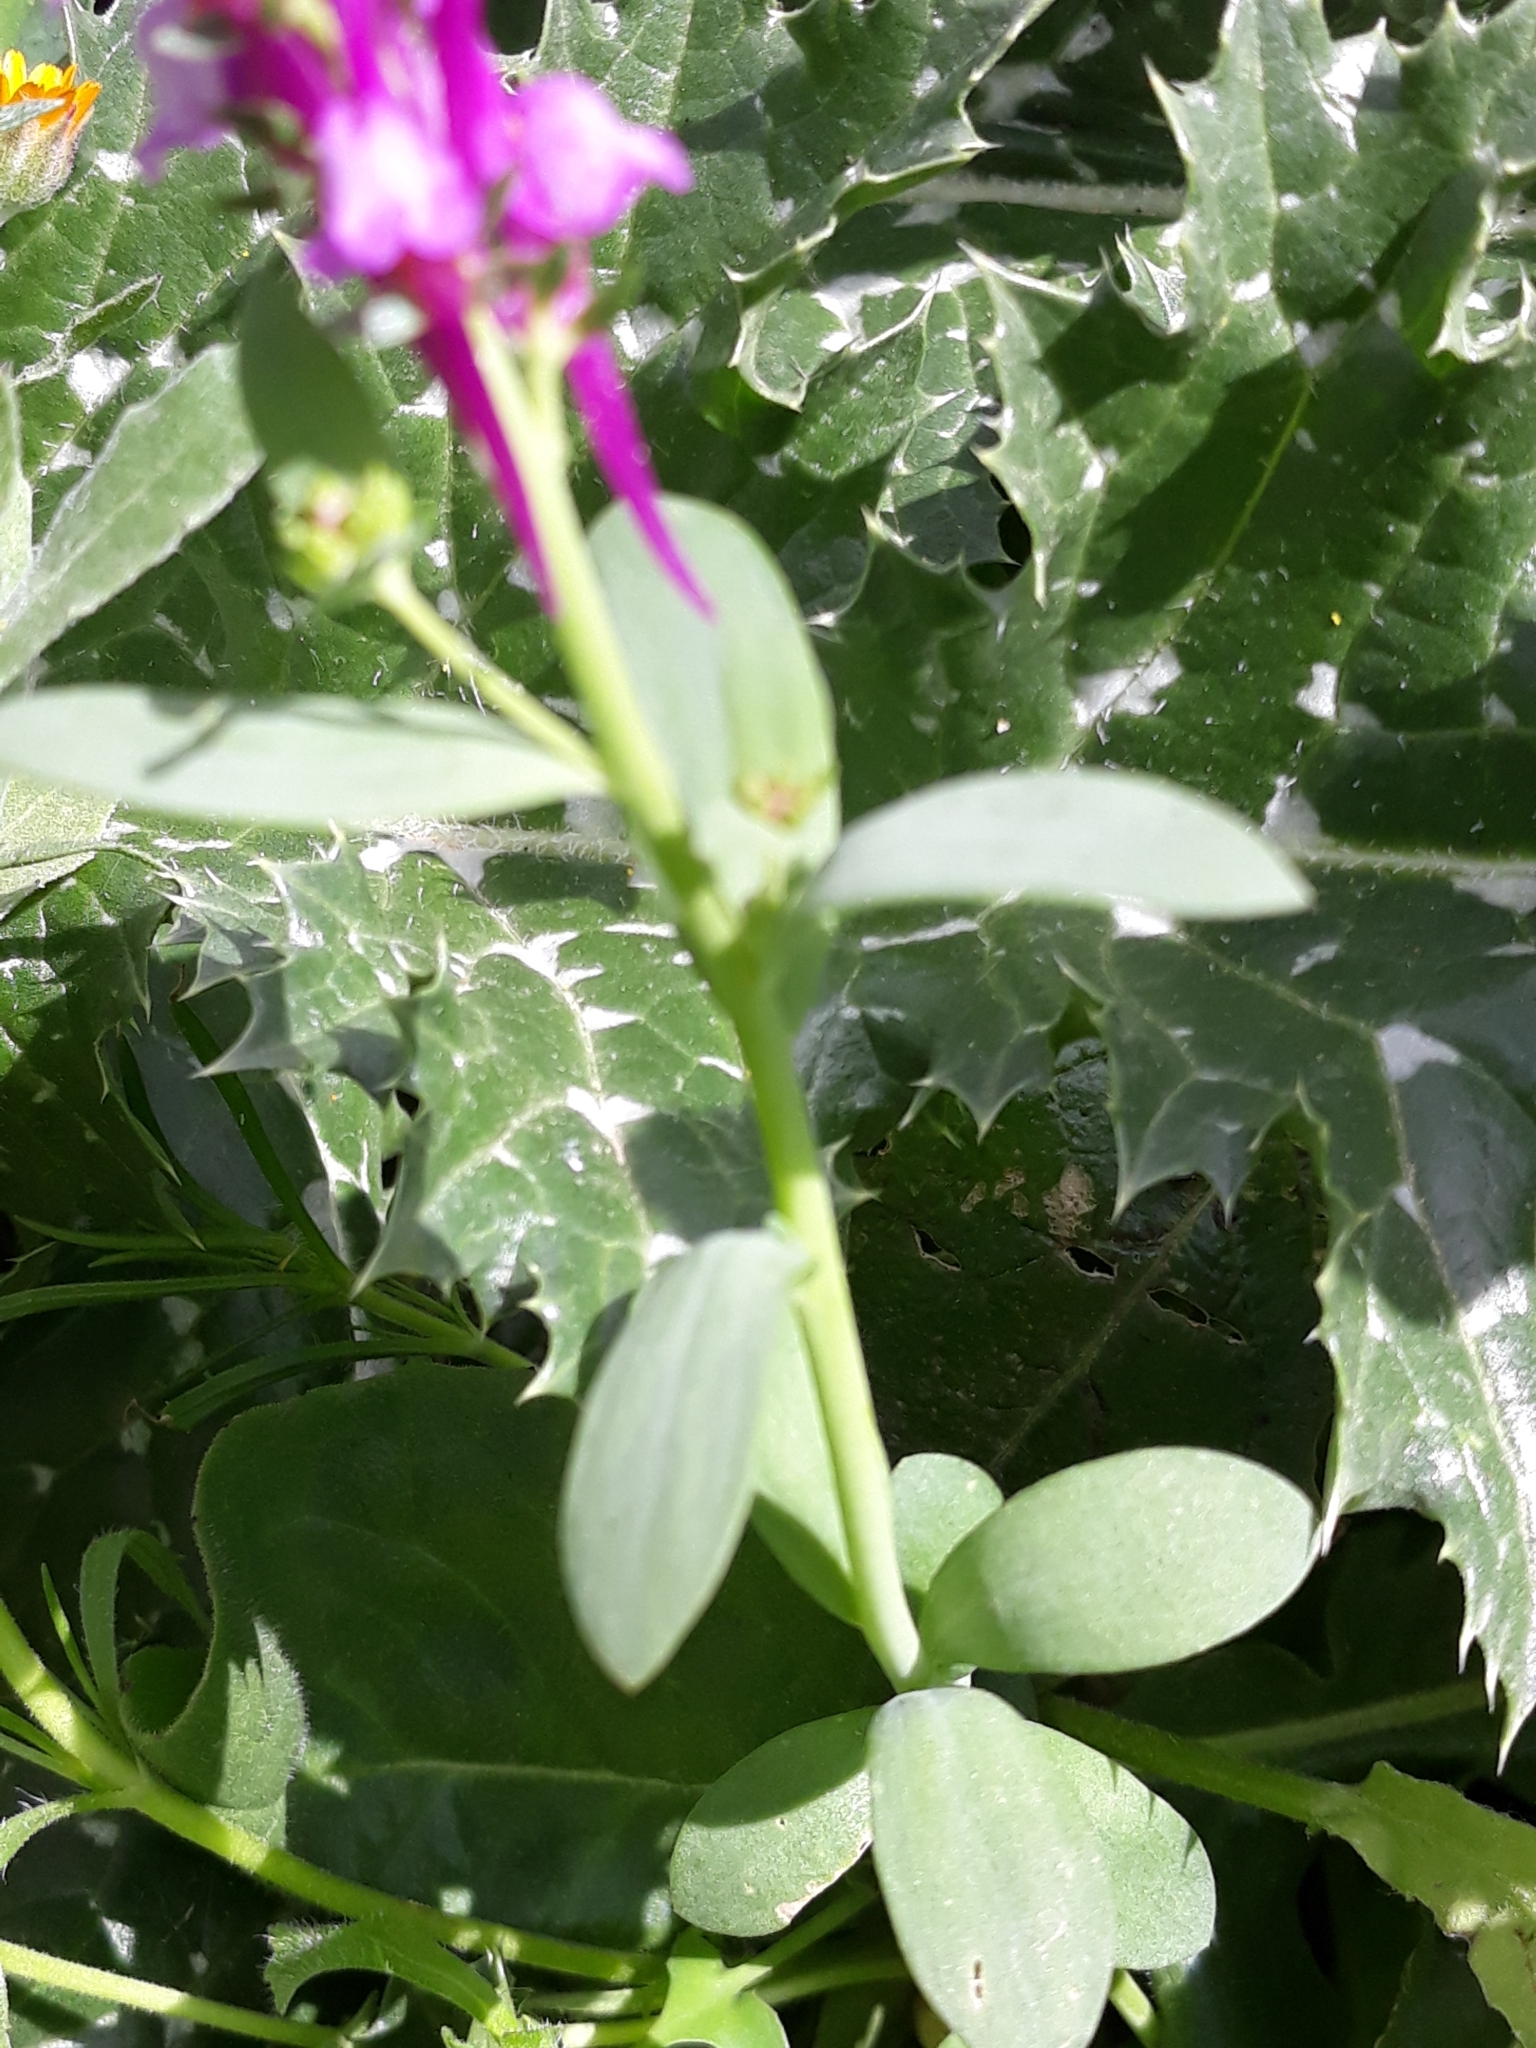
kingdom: Plantae
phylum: Tracheophyta
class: Magnoliopsida
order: Lamiales
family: Plantaginaceae
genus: Linaria
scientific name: Linaria virgata
